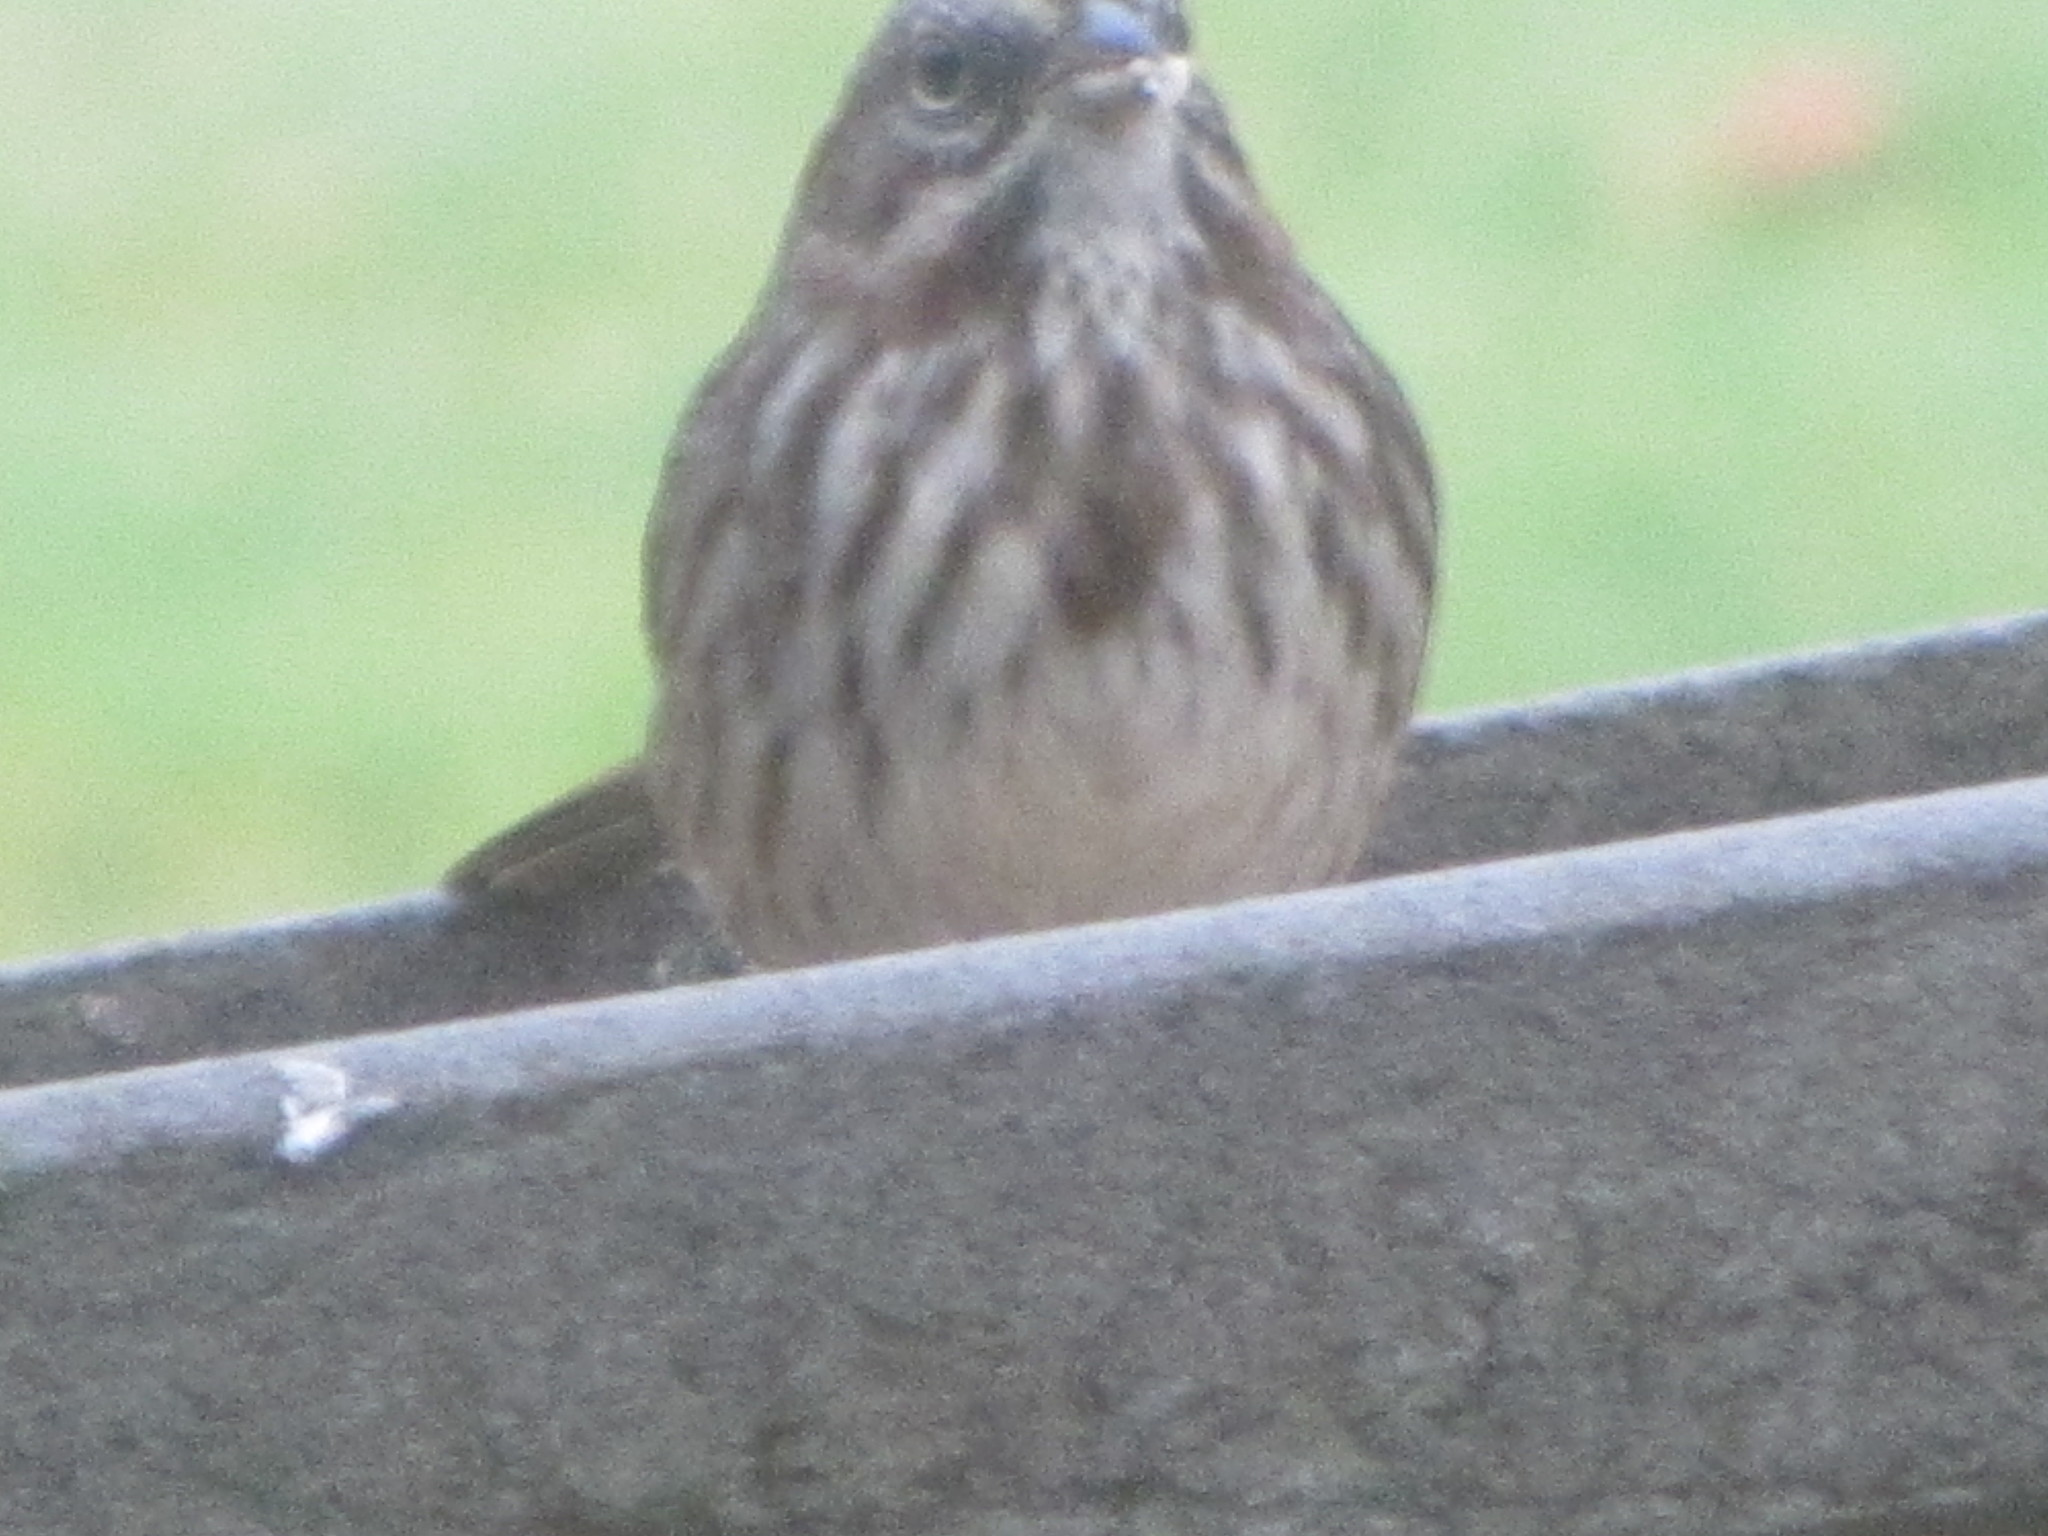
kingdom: Animalia
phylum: Chordata
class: Aves
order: Passeriformes
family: Passerellidae
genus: Melospiza
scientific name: Melospiza melodia
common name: Song sparrow
